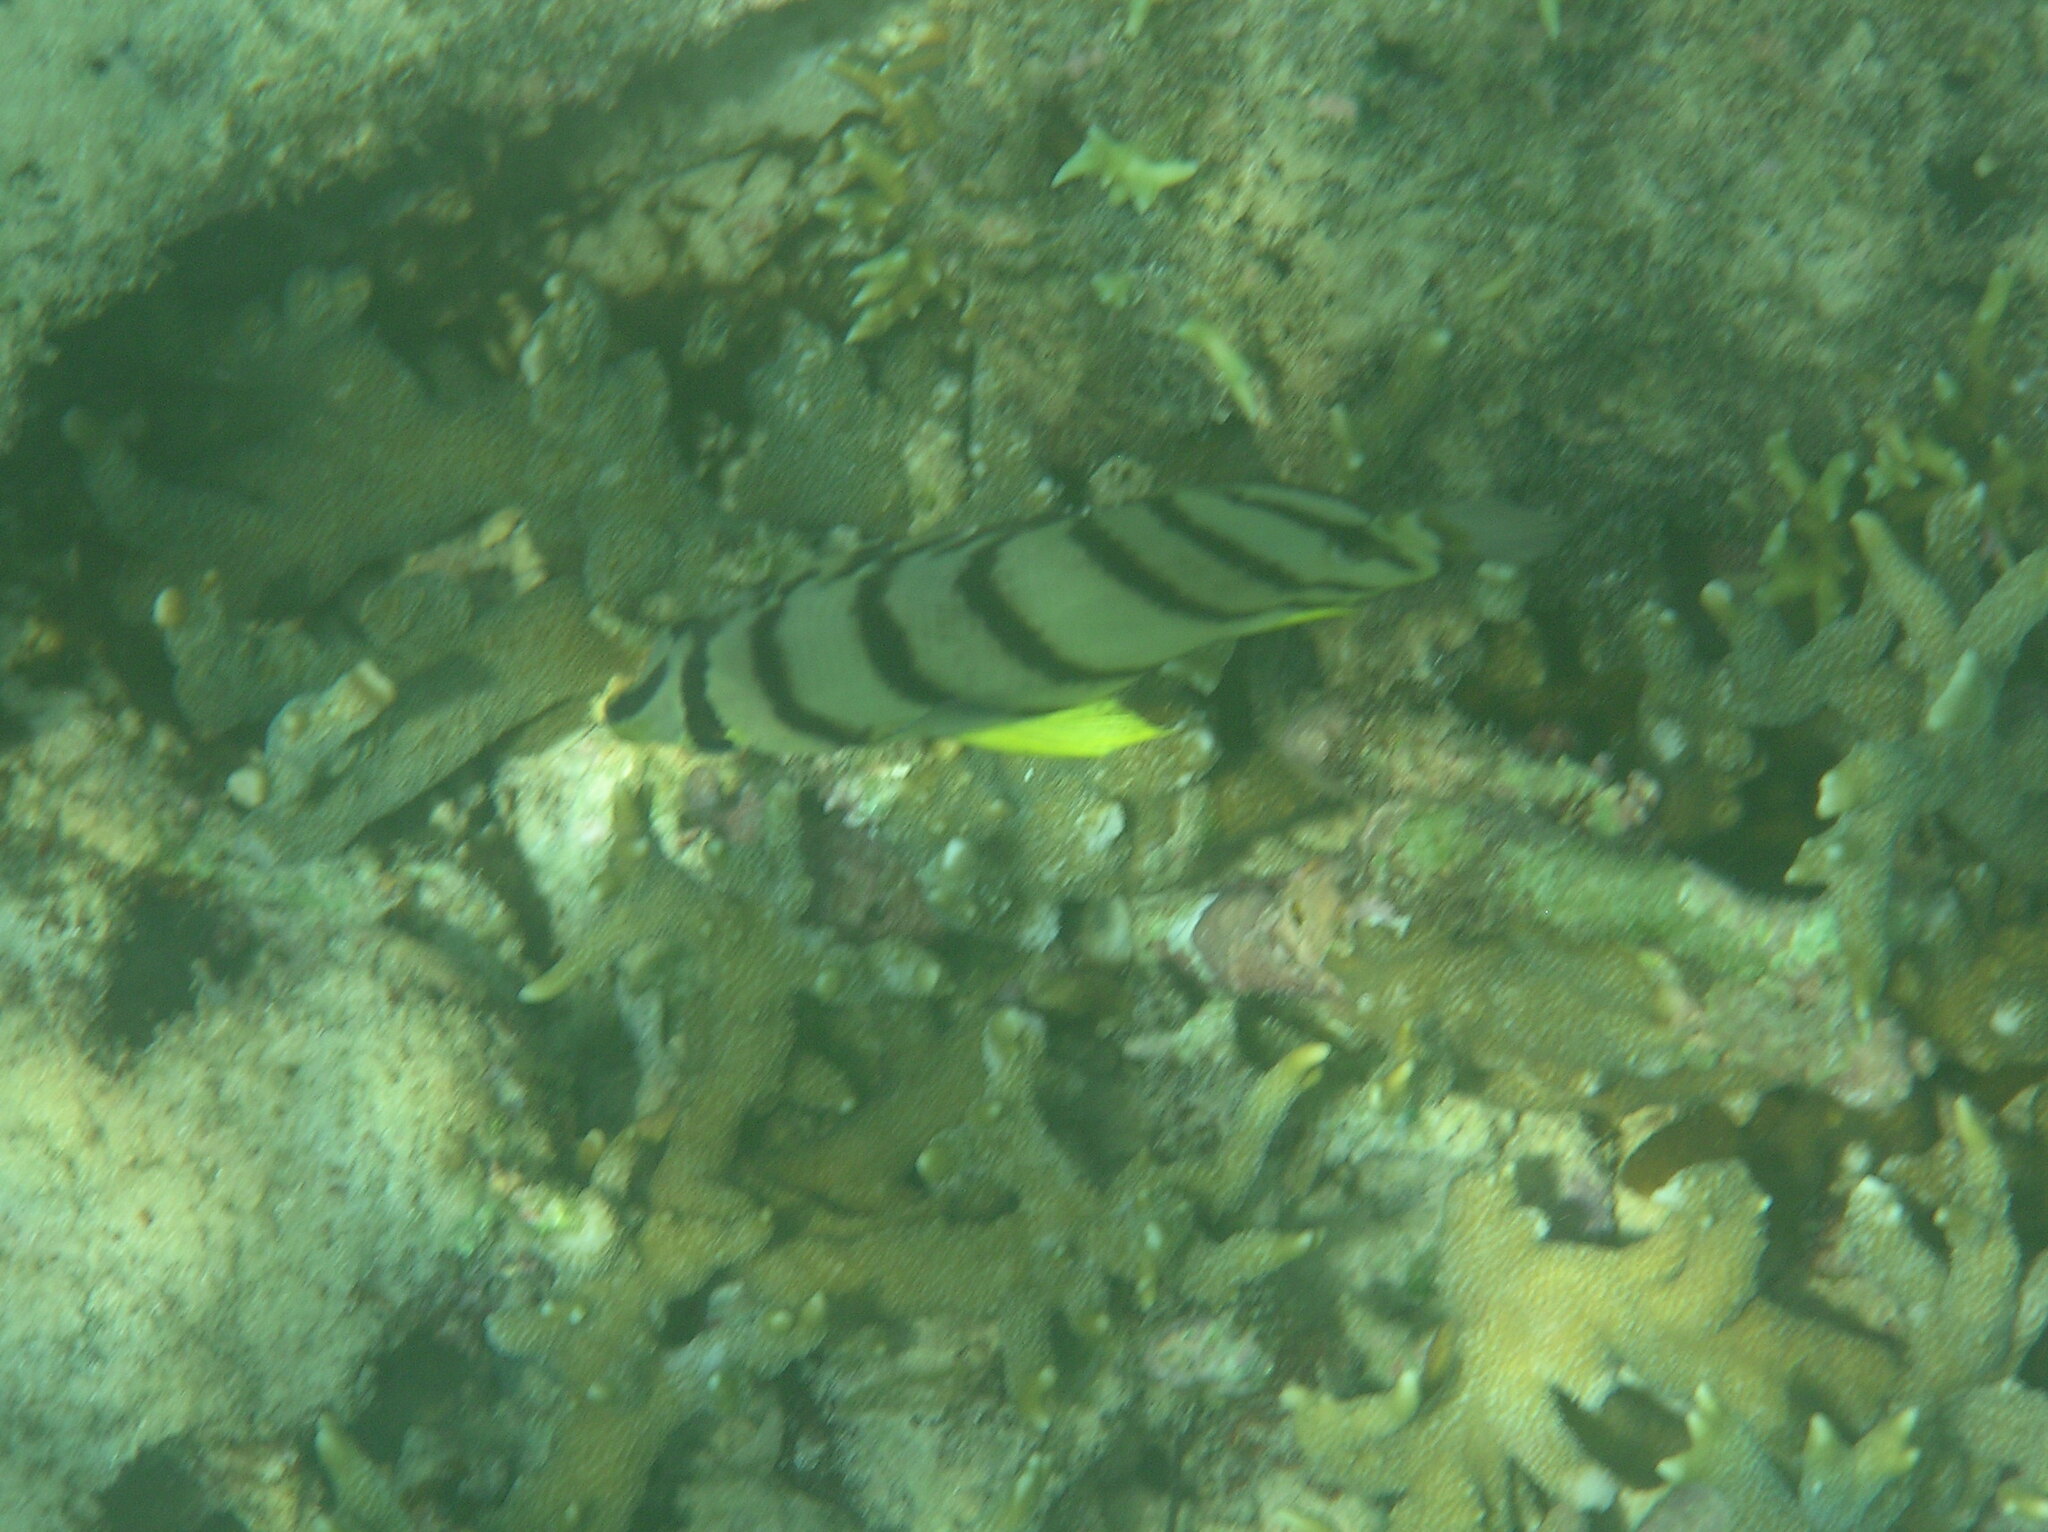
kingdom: Animalia
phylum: Chordata
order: Perciformes
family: Chaetodontidae
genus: Chaetodon
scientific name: Chaetodon octofasciatus
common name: Eightband butterflyfish
